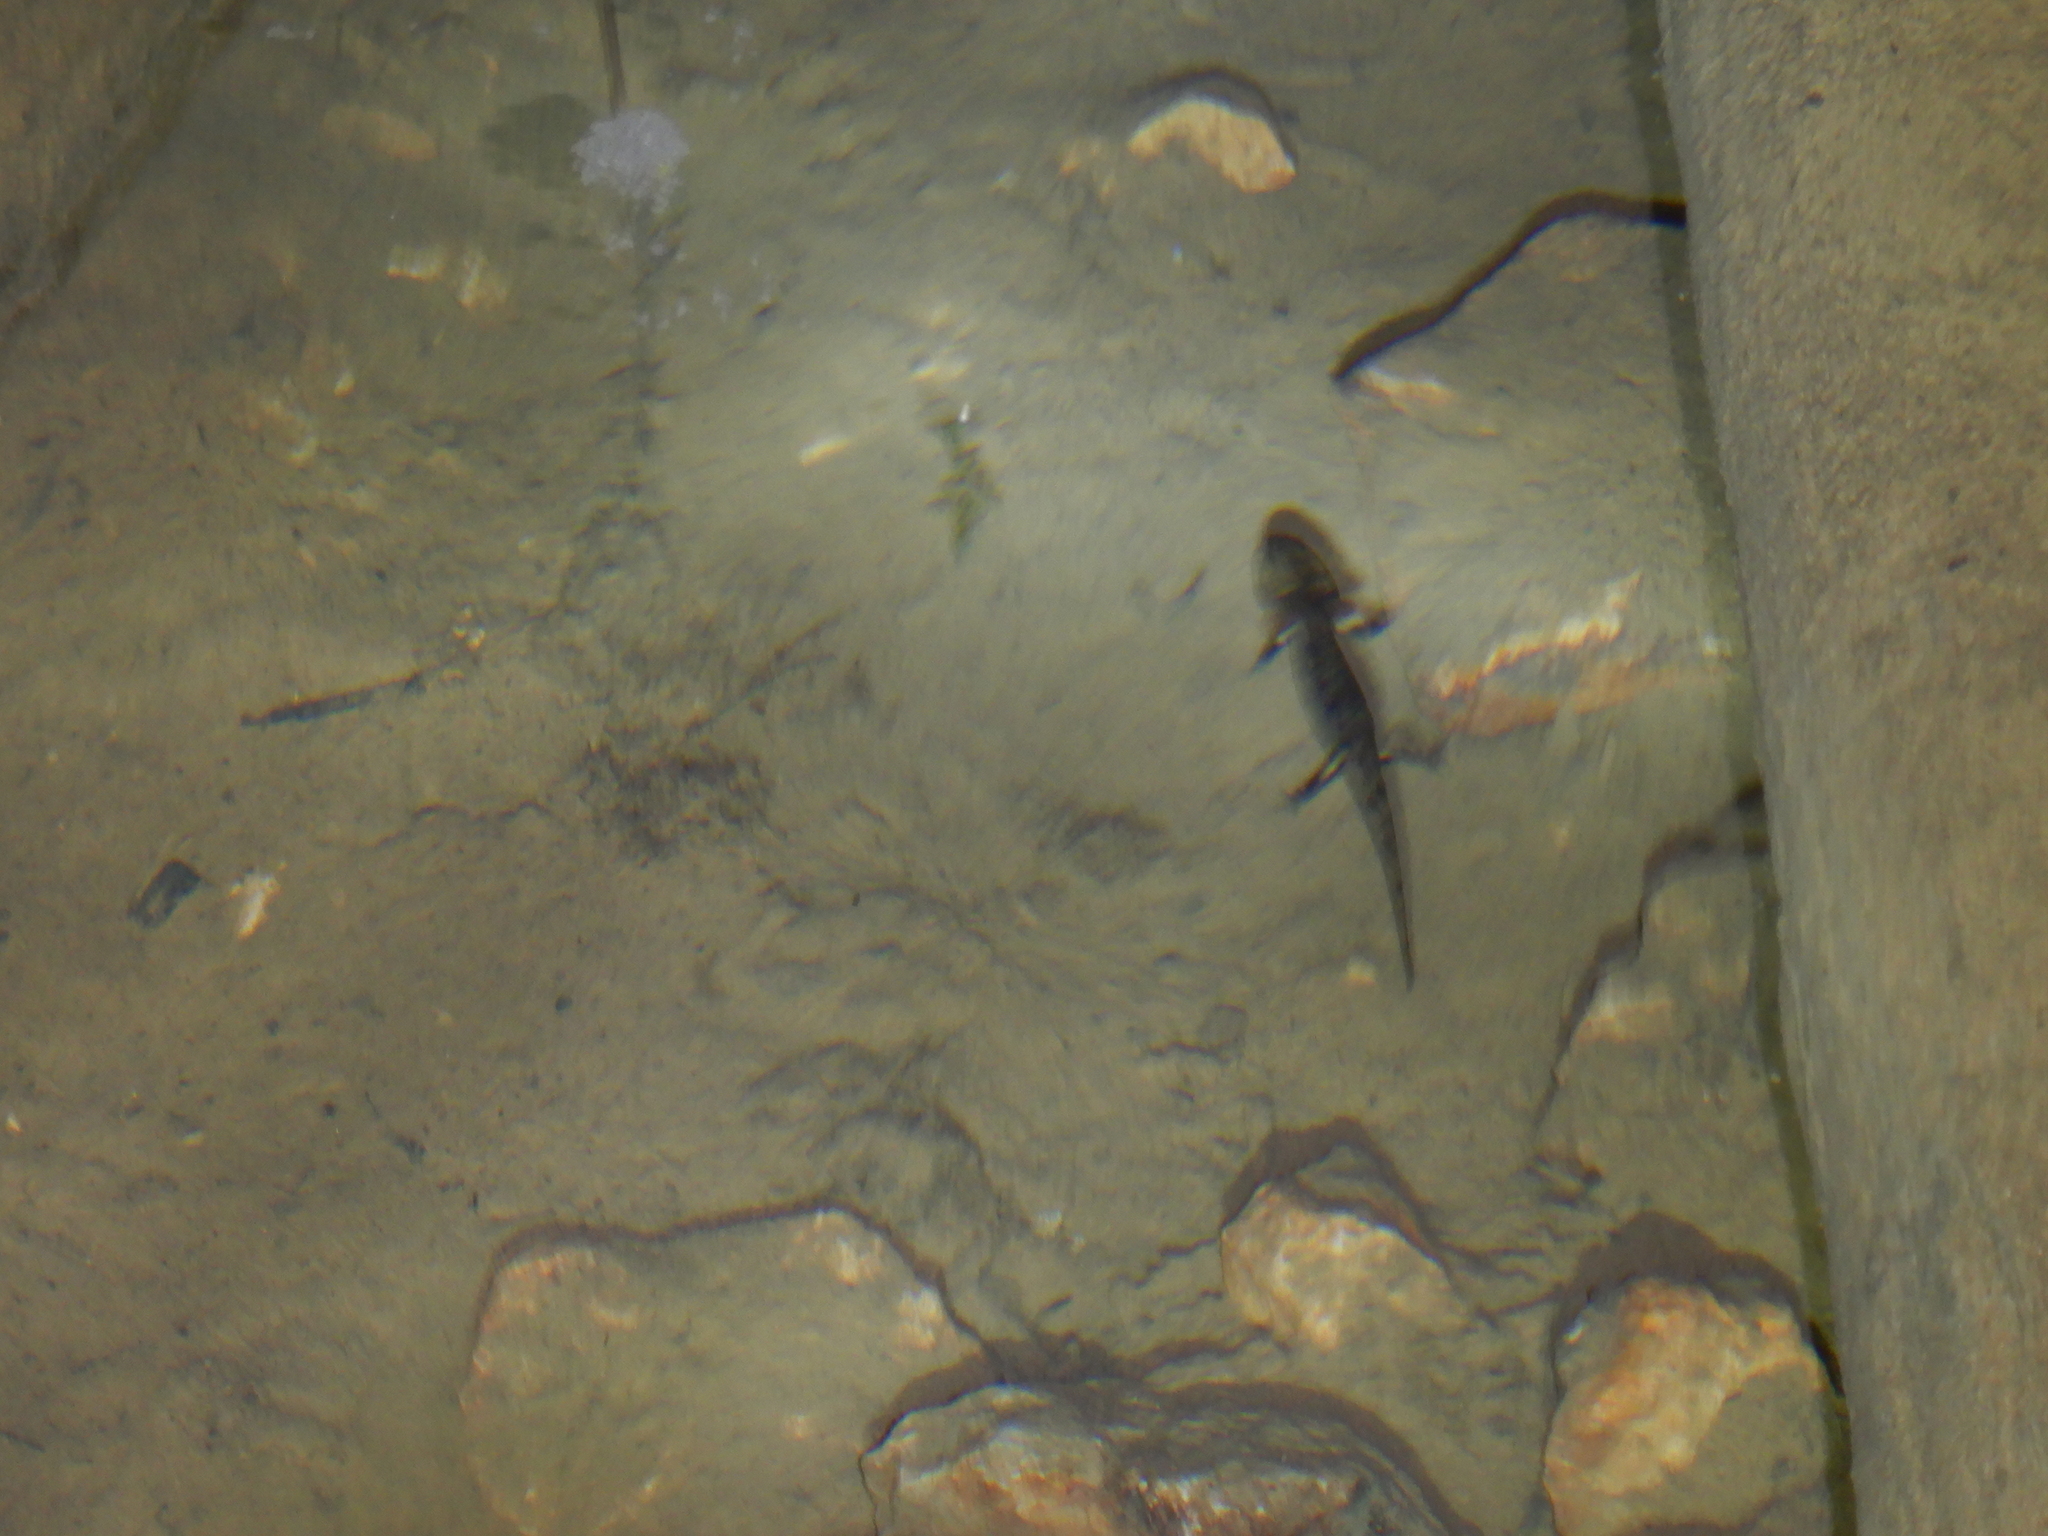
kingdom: Animalia
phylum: Chordata
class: Amphibia
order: Caudata
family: Salamandridae
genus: Salamandra
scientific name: Salamandra salamandra
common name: Fire salamander
